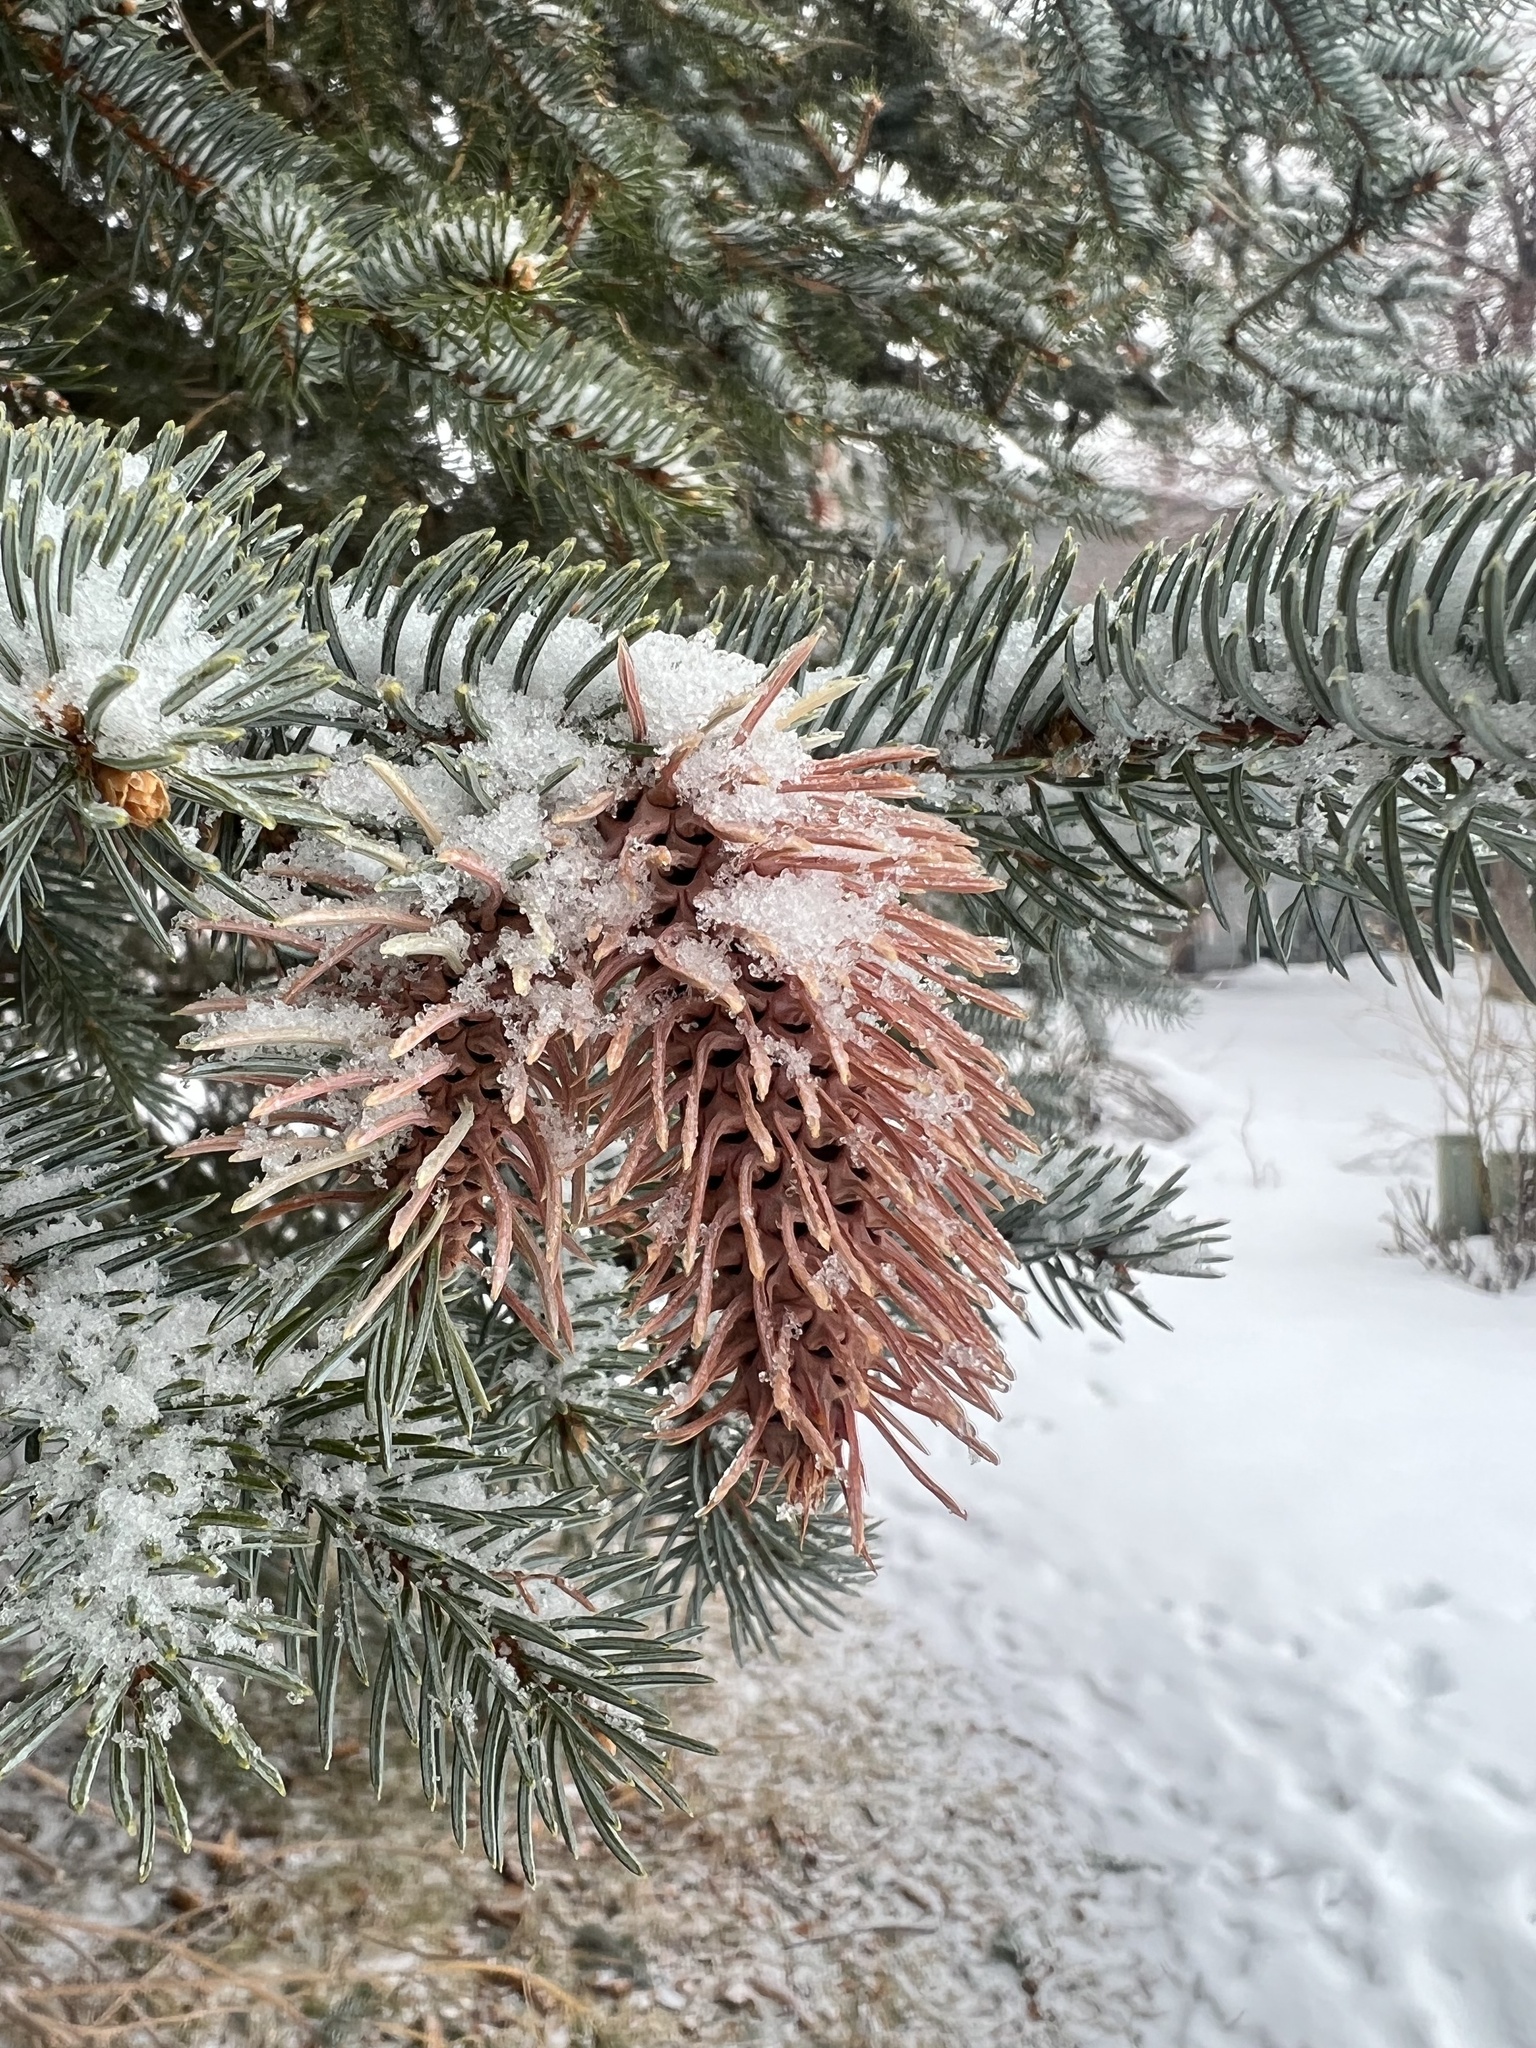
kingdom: Animalia
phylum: Arthropoda
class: Insecta
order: Hemiptera
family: Adelgidae
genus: Adelges
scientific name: Adelges cooleyi
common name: Cooley spruce gall adelgid
